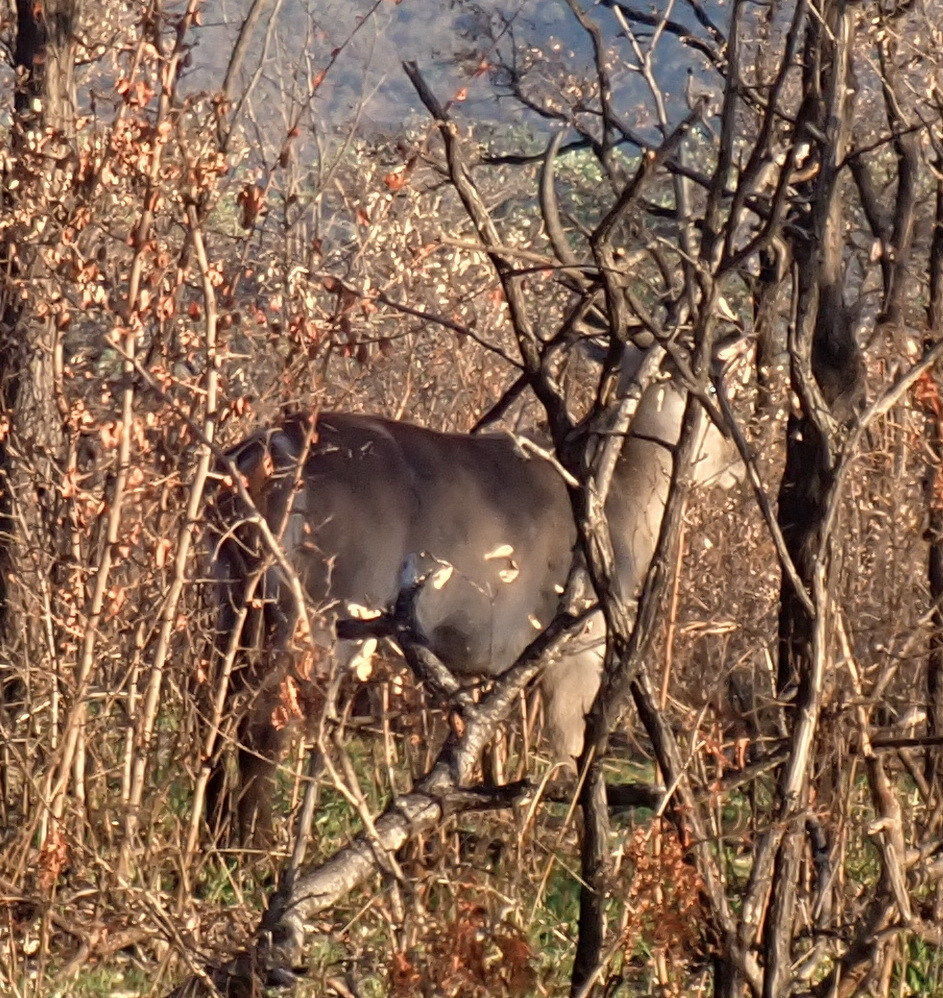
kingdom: Animalia
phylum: Chordata
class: Mammalia
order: Artiodactyla
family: Bovidae
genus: Kobus
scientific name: Kobus ellipsiprymnus
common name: Waterbuck
